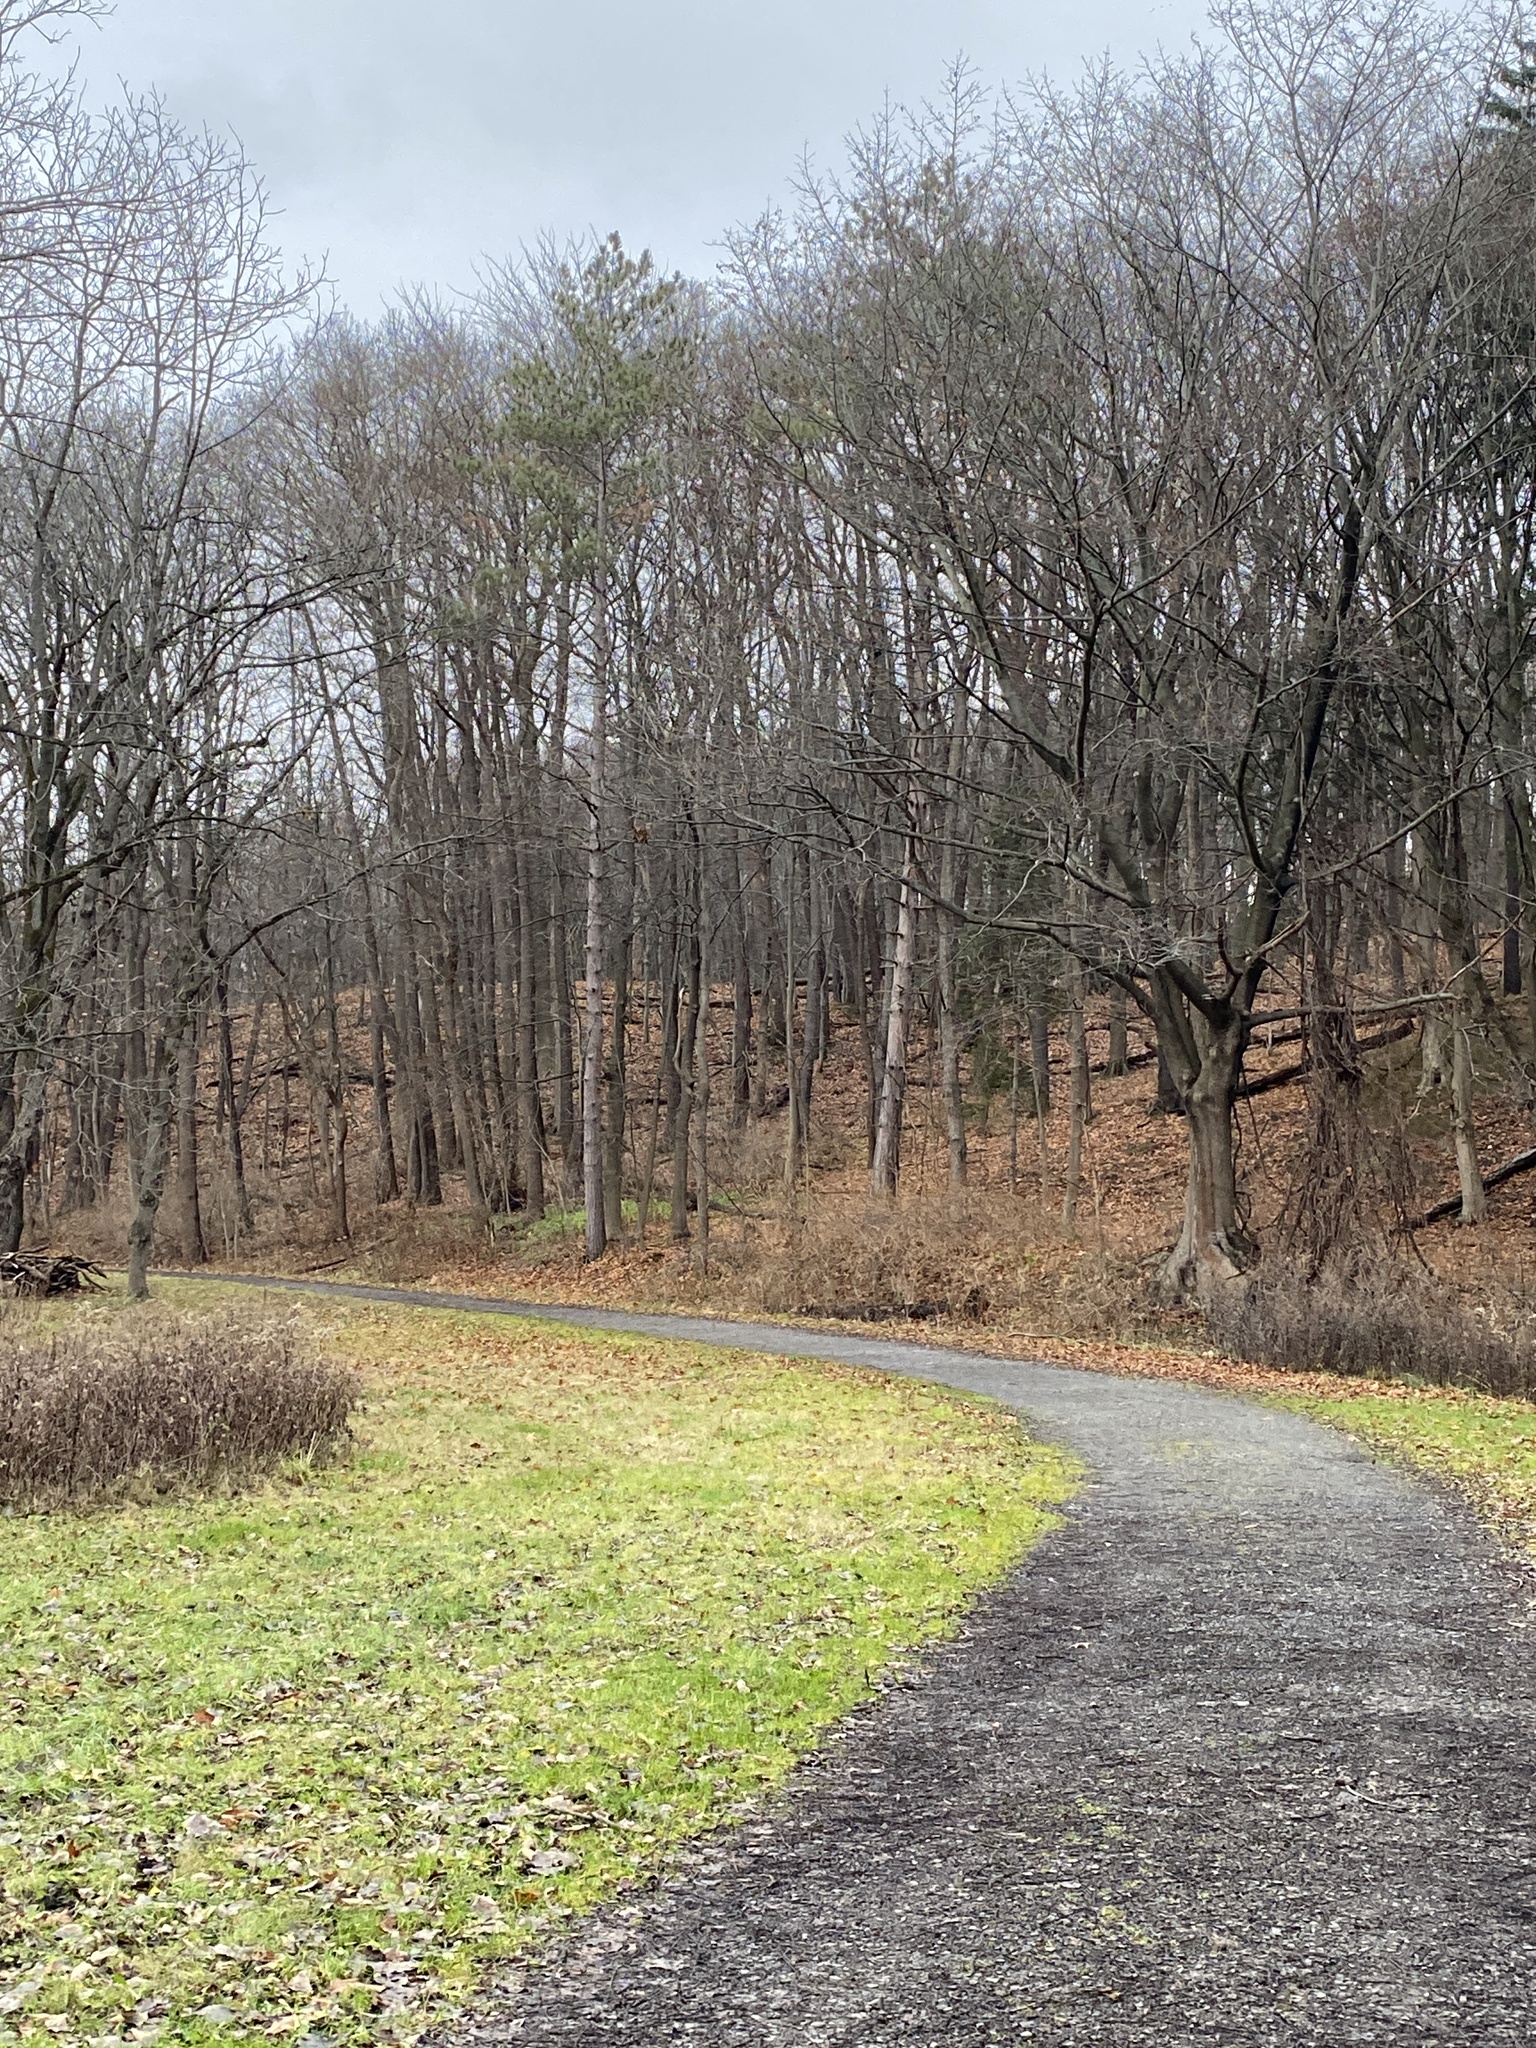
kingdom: Plantae
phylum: Tracheophyta
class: Magnoliopsida
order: Ranunculales
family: Ranunculaceae
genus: Ranunculus
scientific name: Ranunculus repens
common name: Creeping buttercup
